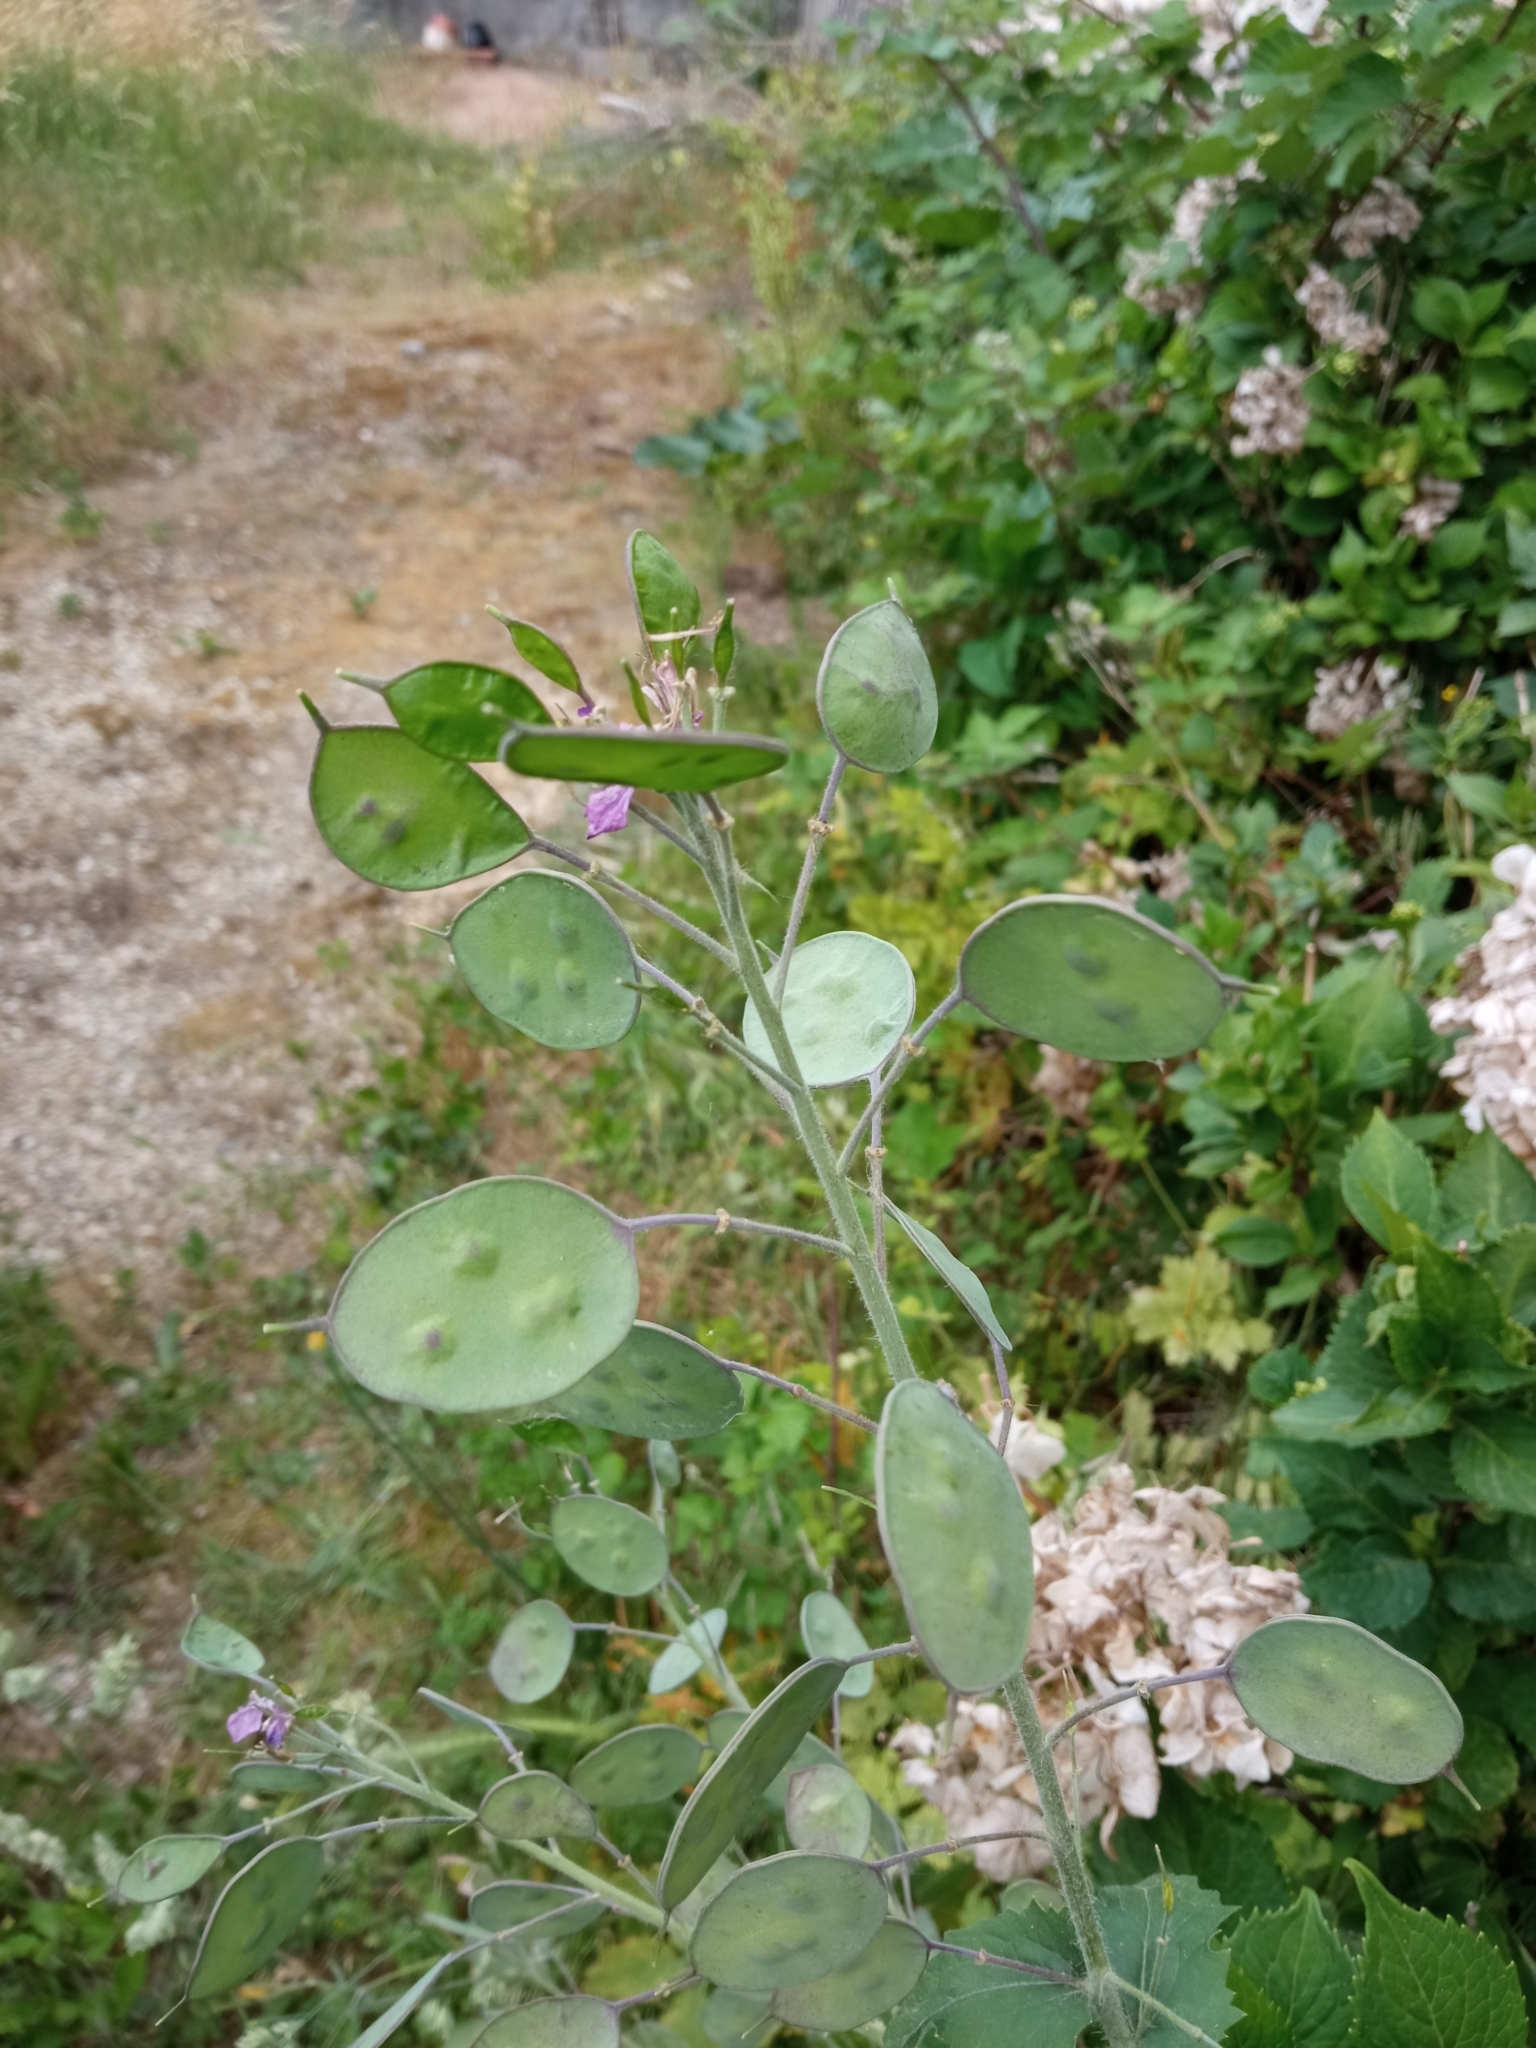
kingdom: Plantae
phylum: Tracheophyta
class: Magnoliopsida
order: Brassicales
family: Brassicaceae
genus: Lunaria
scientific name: Lunaria annua
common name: Honesty
